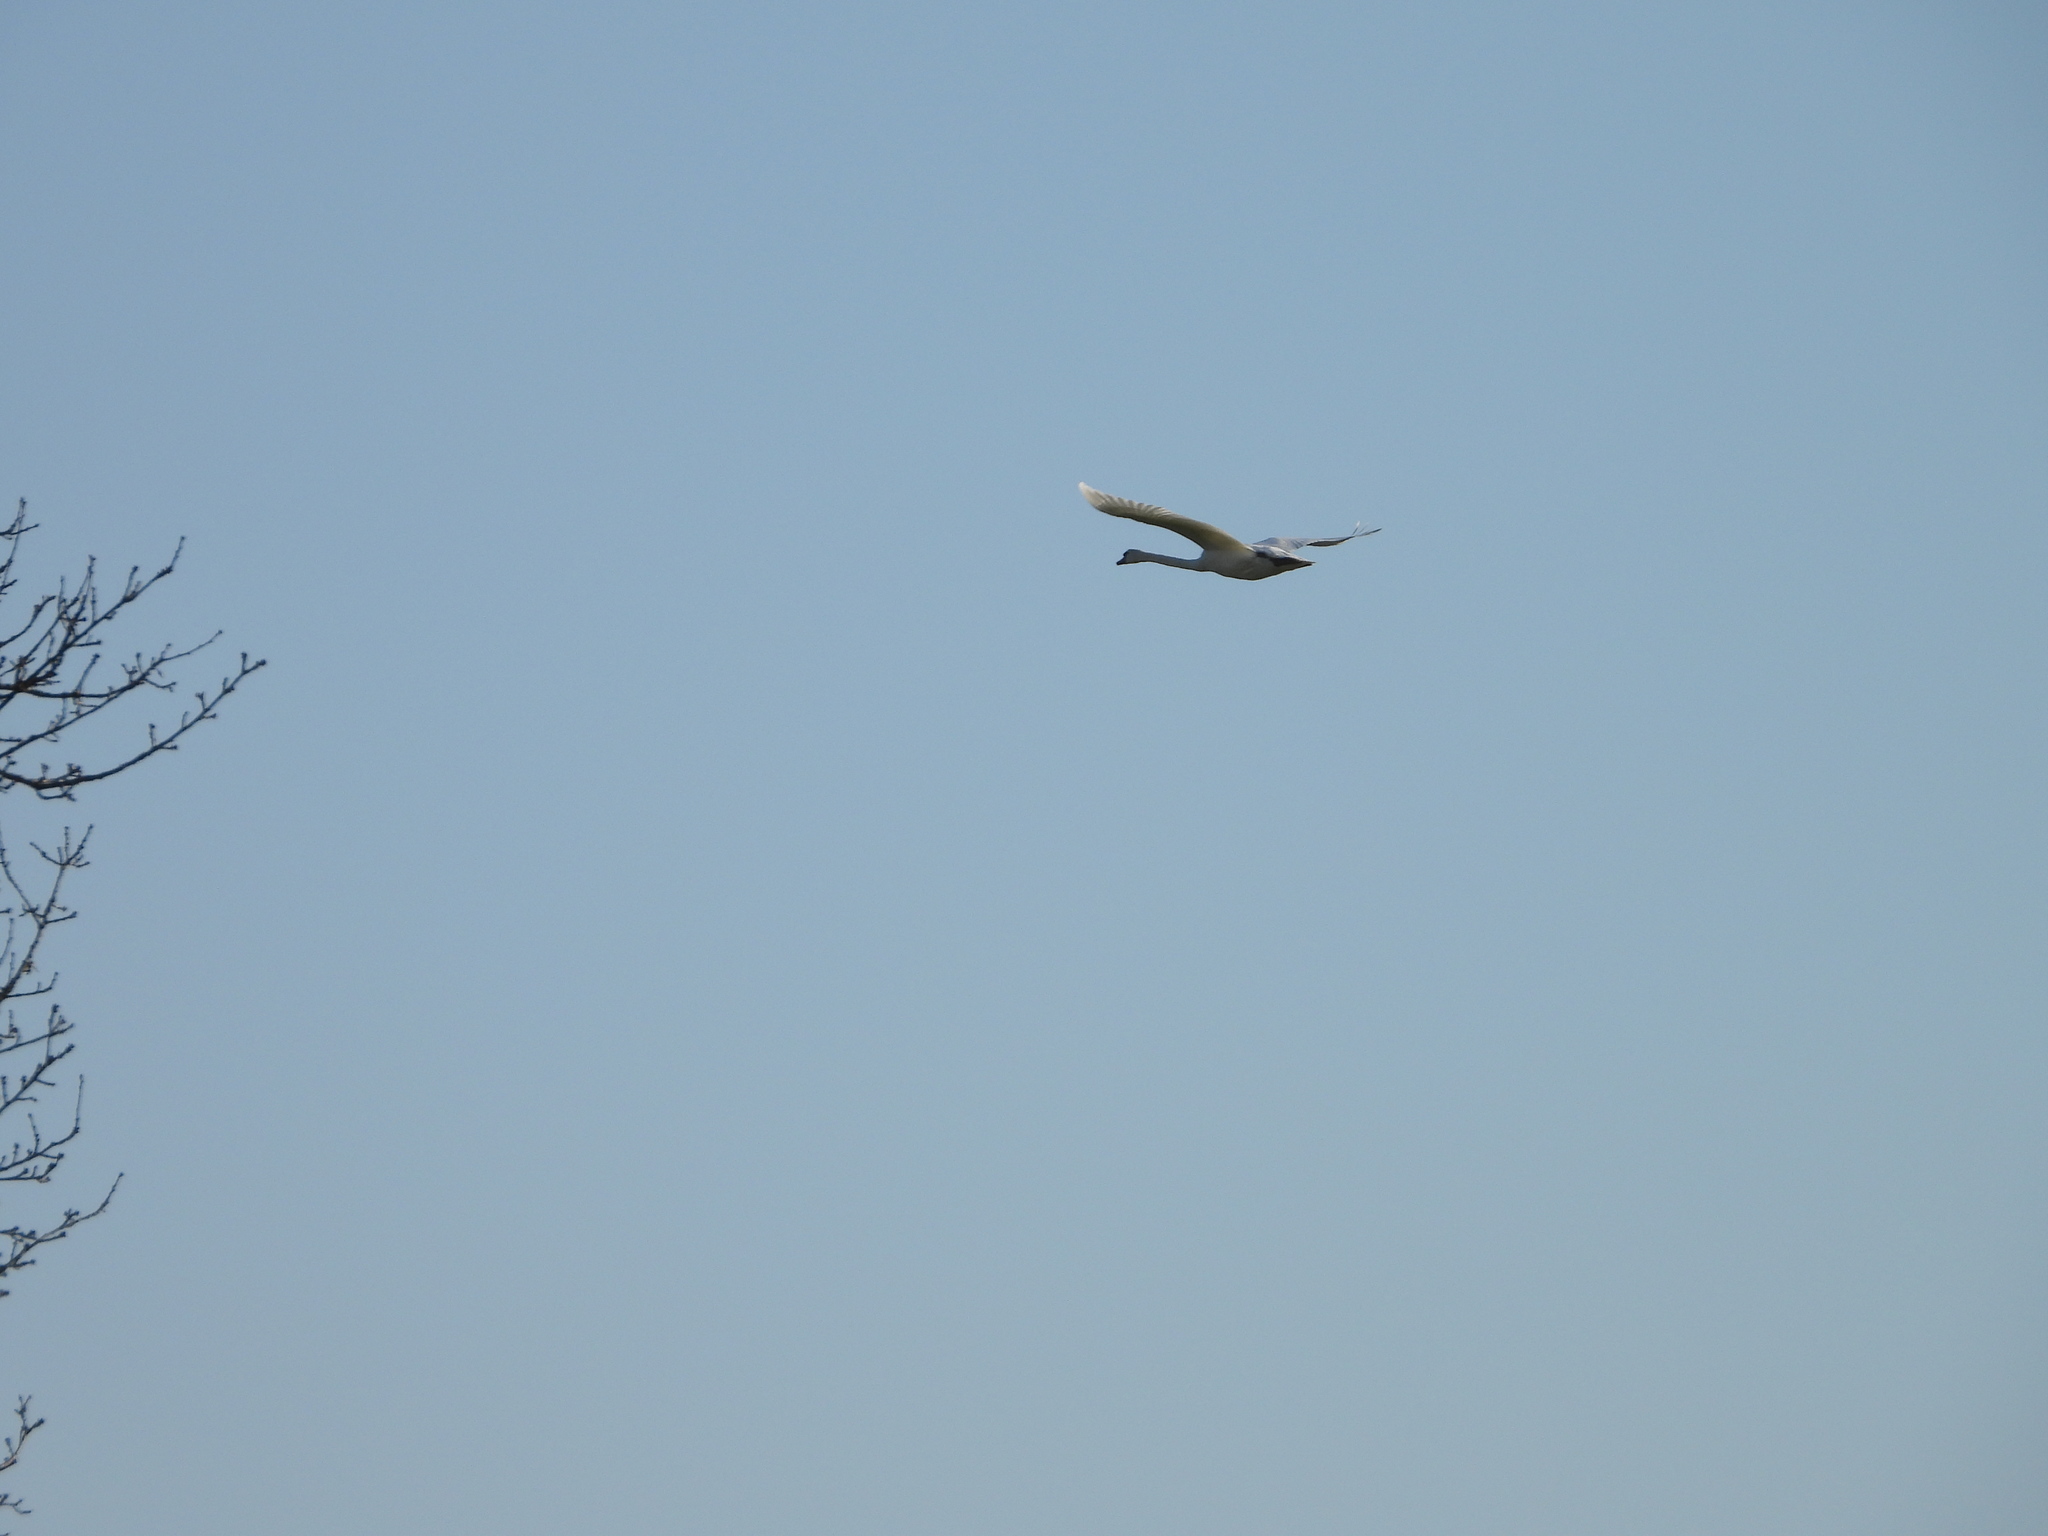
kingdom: Animalia
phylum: Chordata
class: Aves
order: Anseriformes
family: Anatidae
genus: Cygnus
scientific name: Cygnus olor
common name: Mute swan
